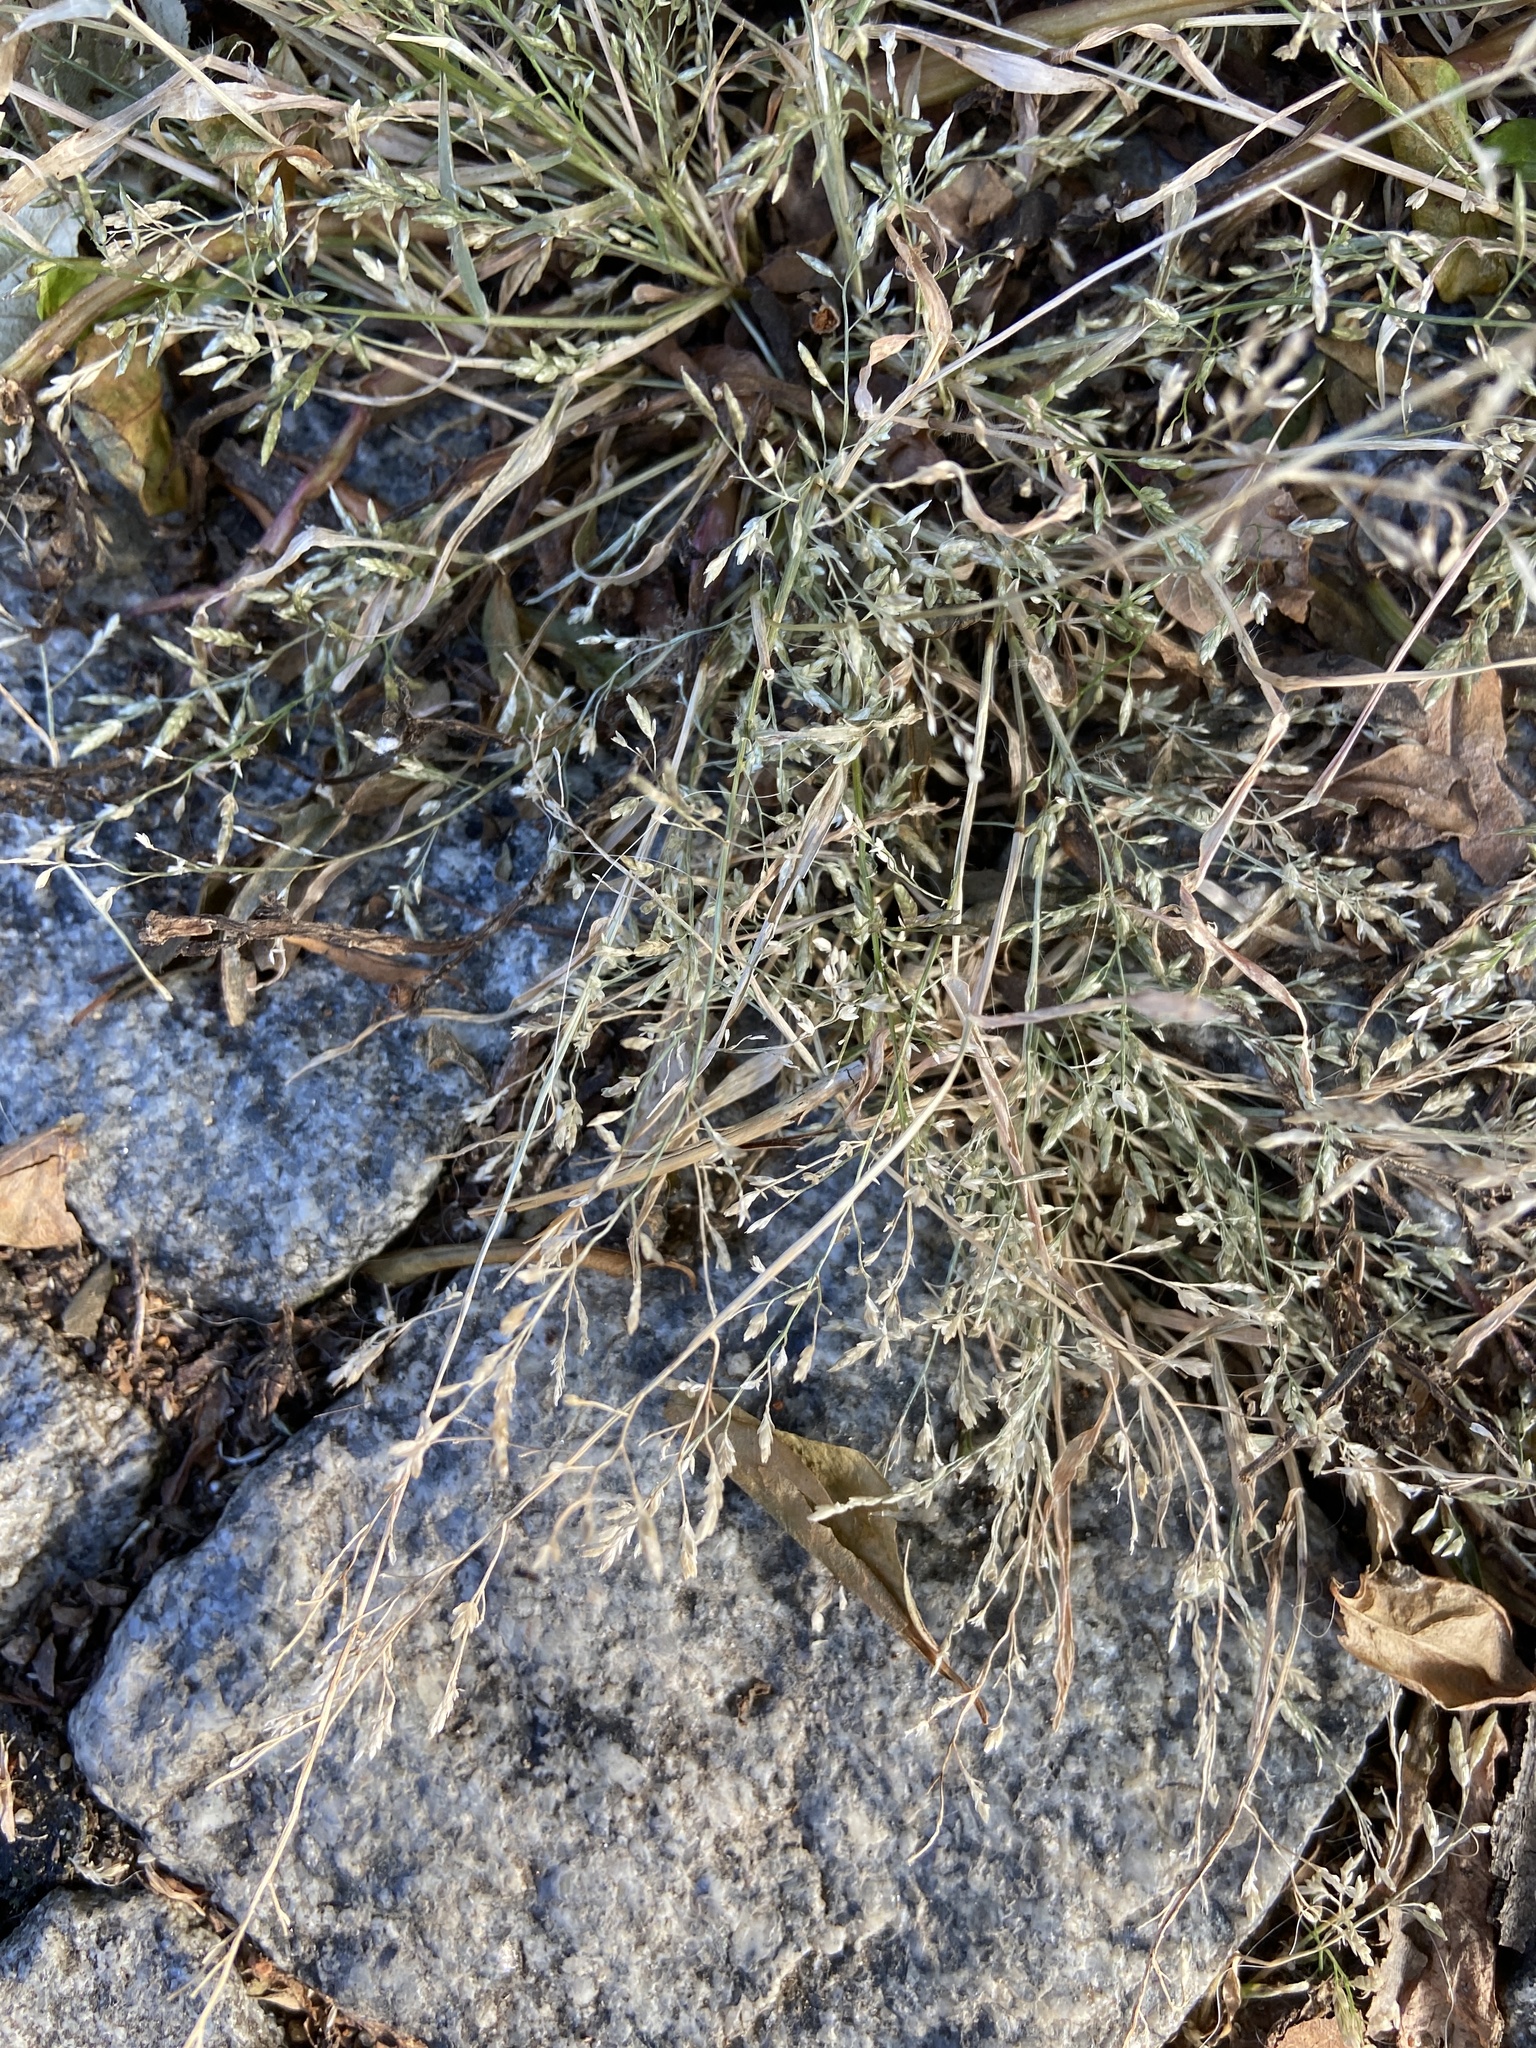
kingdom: Plantae
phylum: Tracheophyta
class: Liliopsida
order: Poales
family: Poaceae
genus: Eragrostis
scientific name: Eragrostis minor
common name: Small love-grass
